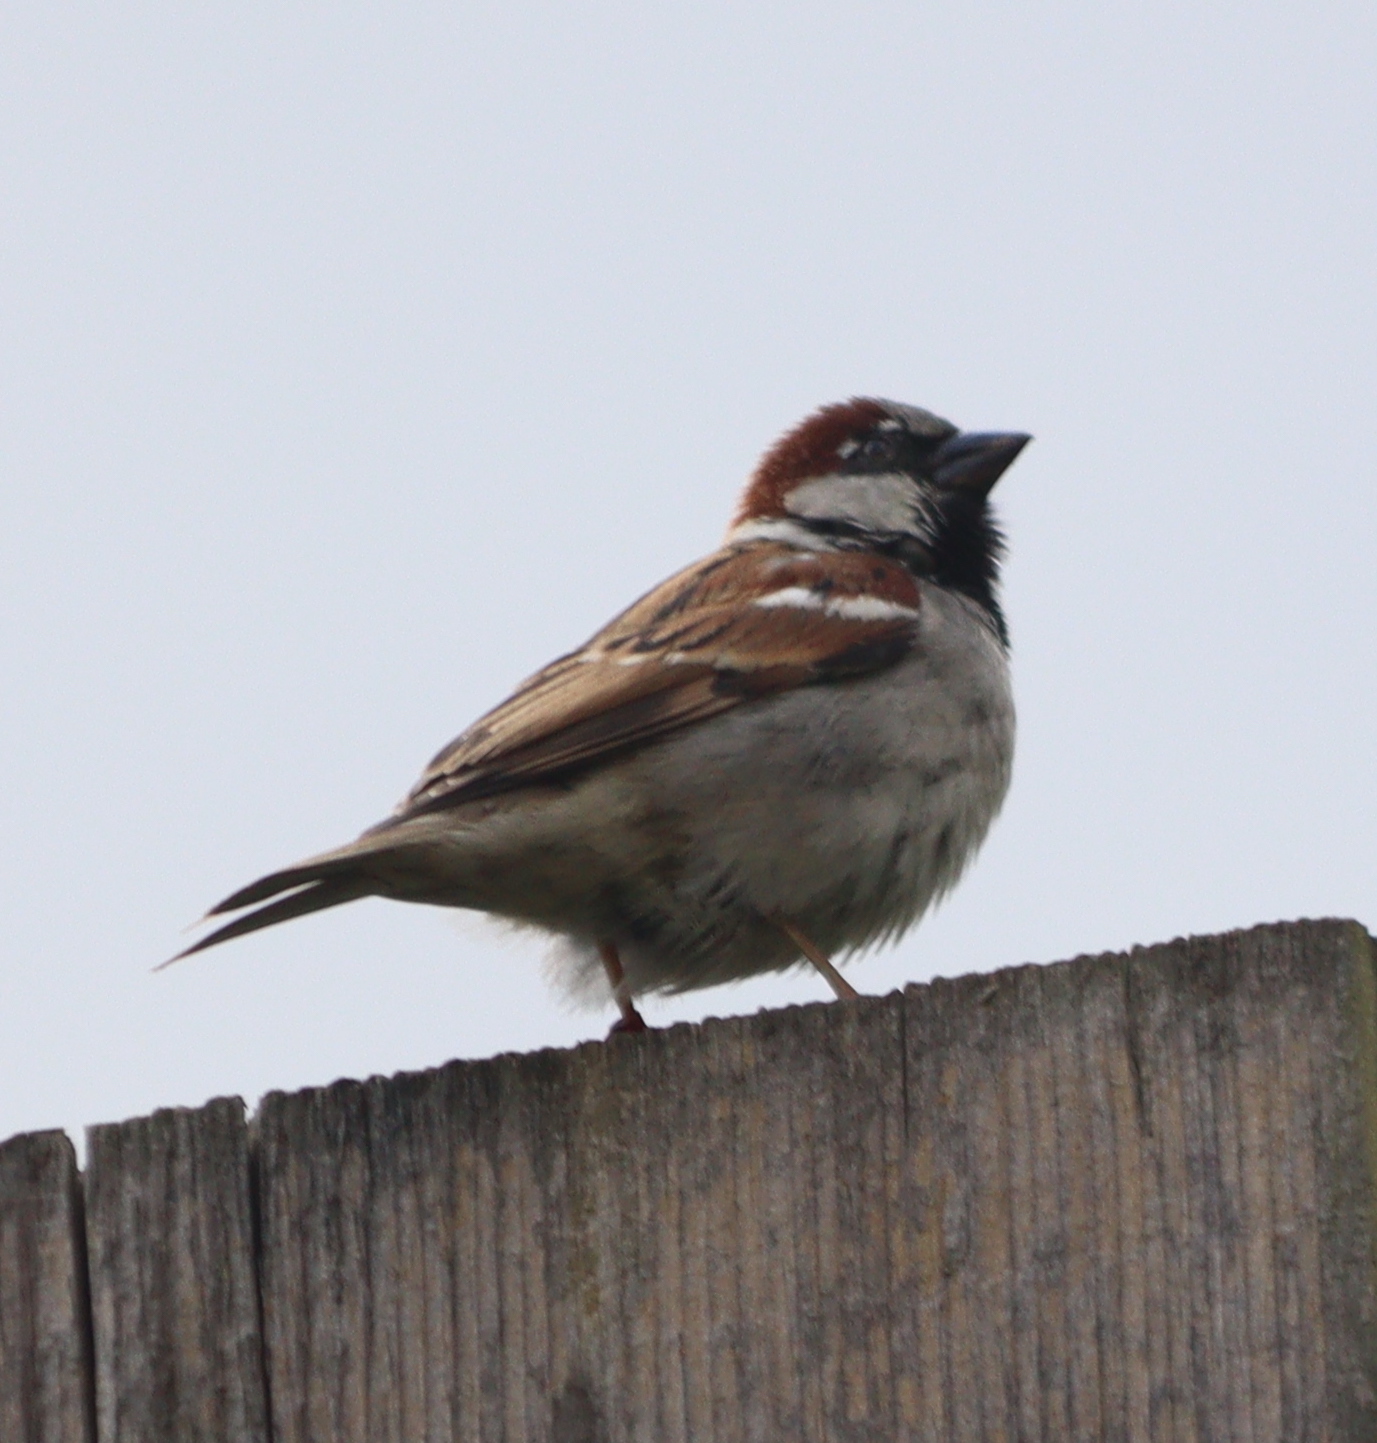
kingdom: Animalia
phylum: Chordata
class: Aves
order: Passeriformes
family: Passeridae
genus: Passer
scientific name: Passer domesticus
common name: House sparrow
